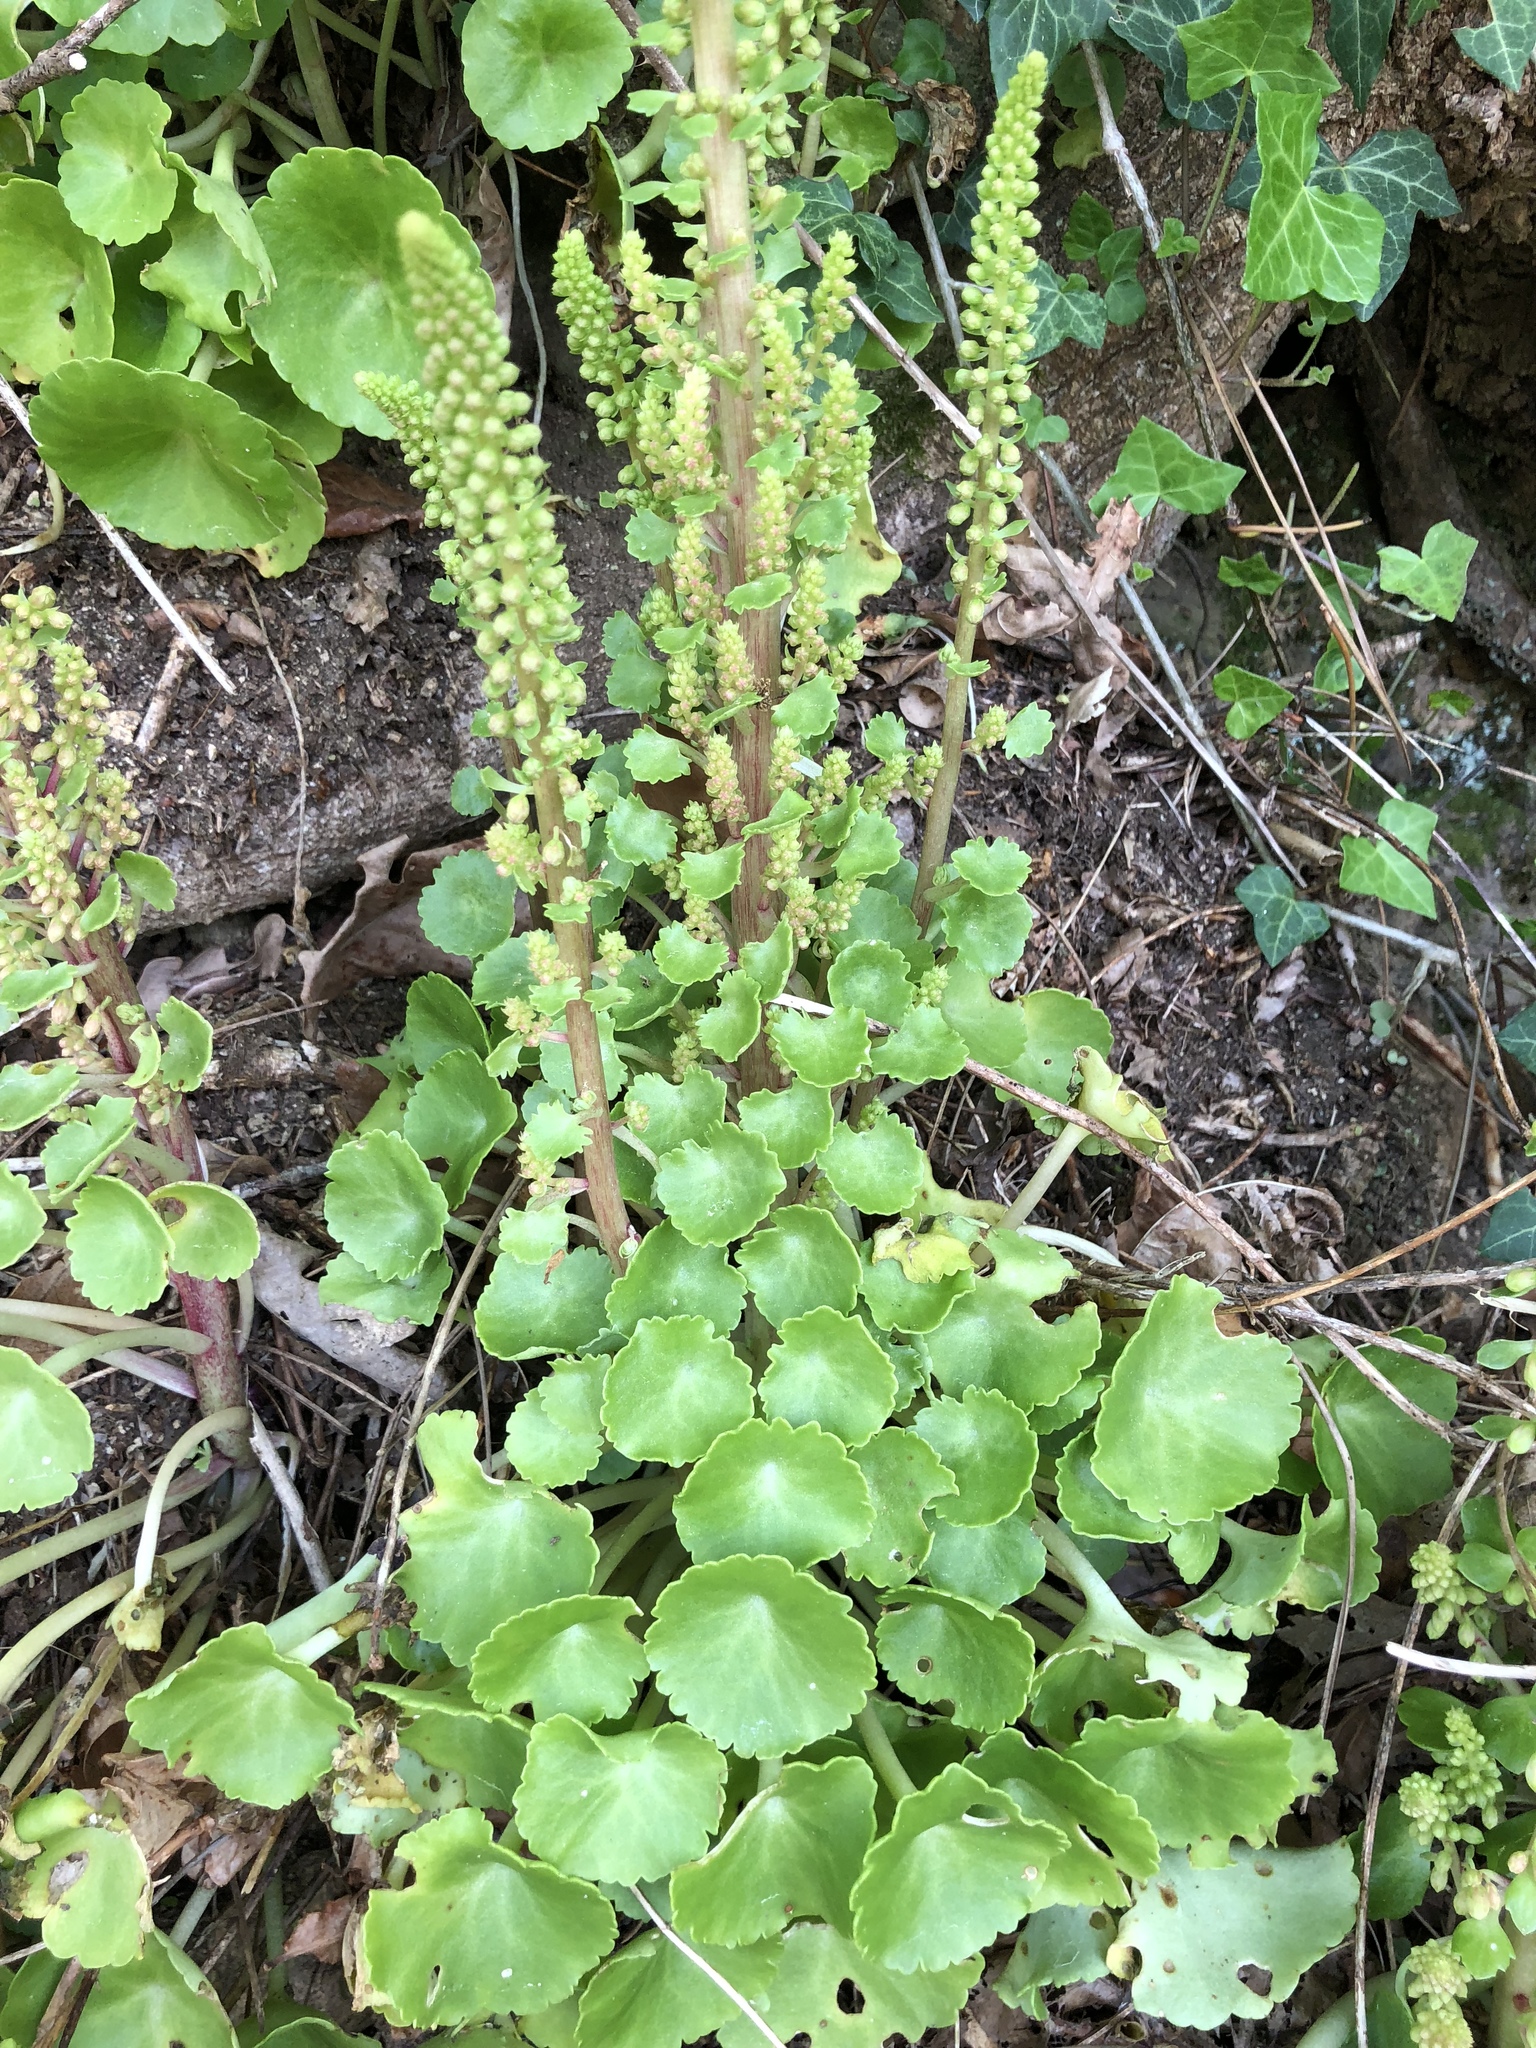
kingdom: Plantae
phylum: Tracheophyta
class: Magnoliopsida
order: Saxifragales
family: Crassulaceae
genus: Umbilicus
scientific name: Umbilicus rupestris
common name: Navelwort
